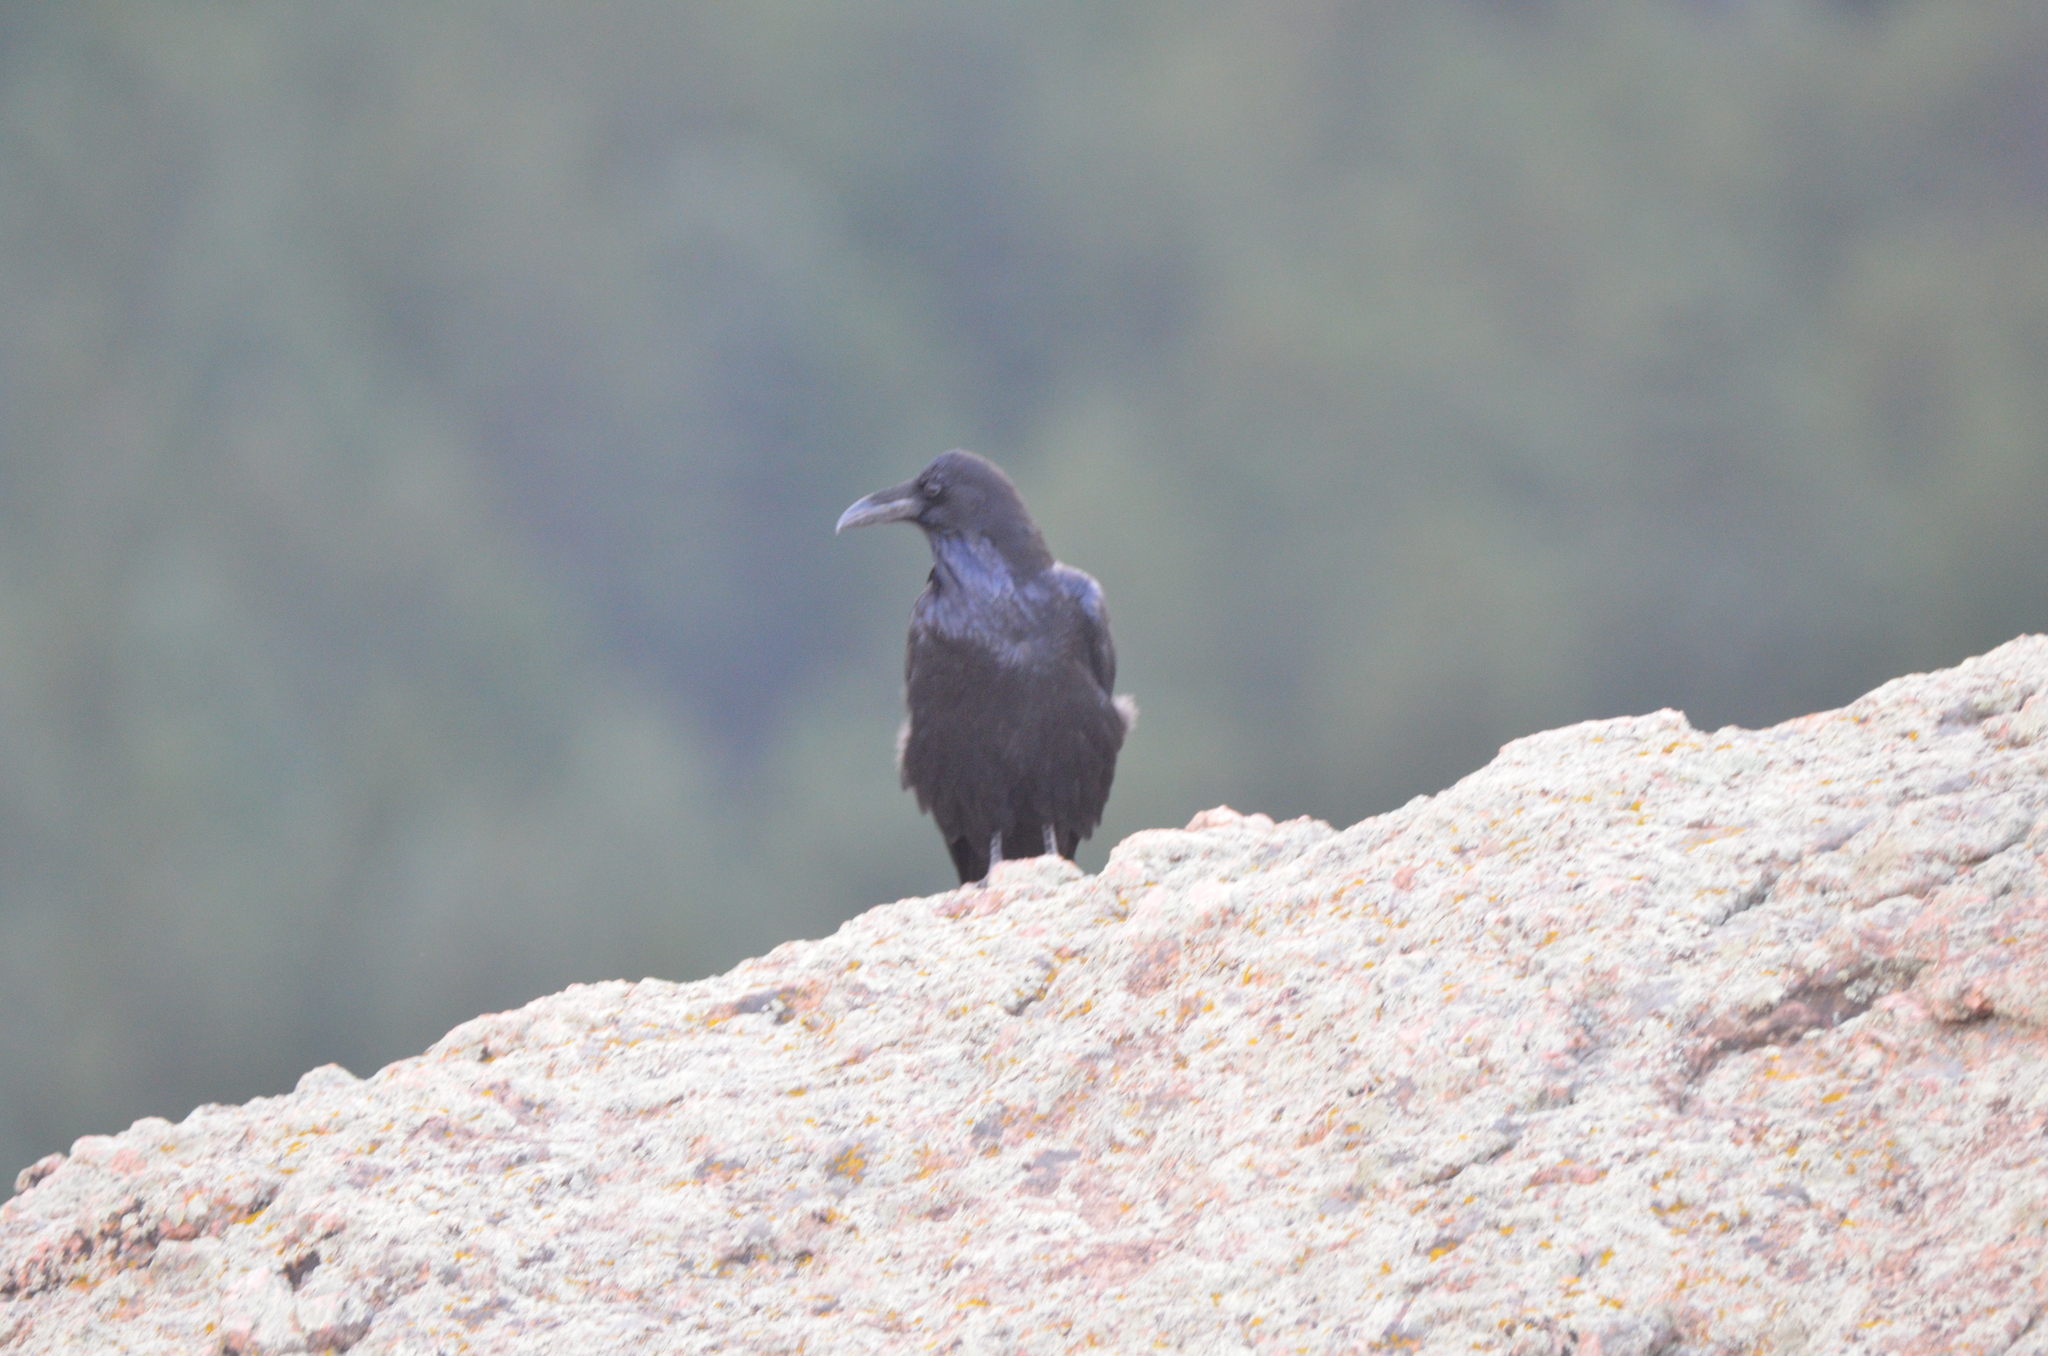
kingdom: Animalia
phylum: Chordata
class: Aves
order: Passeriformes
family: Corvidae
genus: Corvus
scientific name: Corvus corax
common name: Common raven
